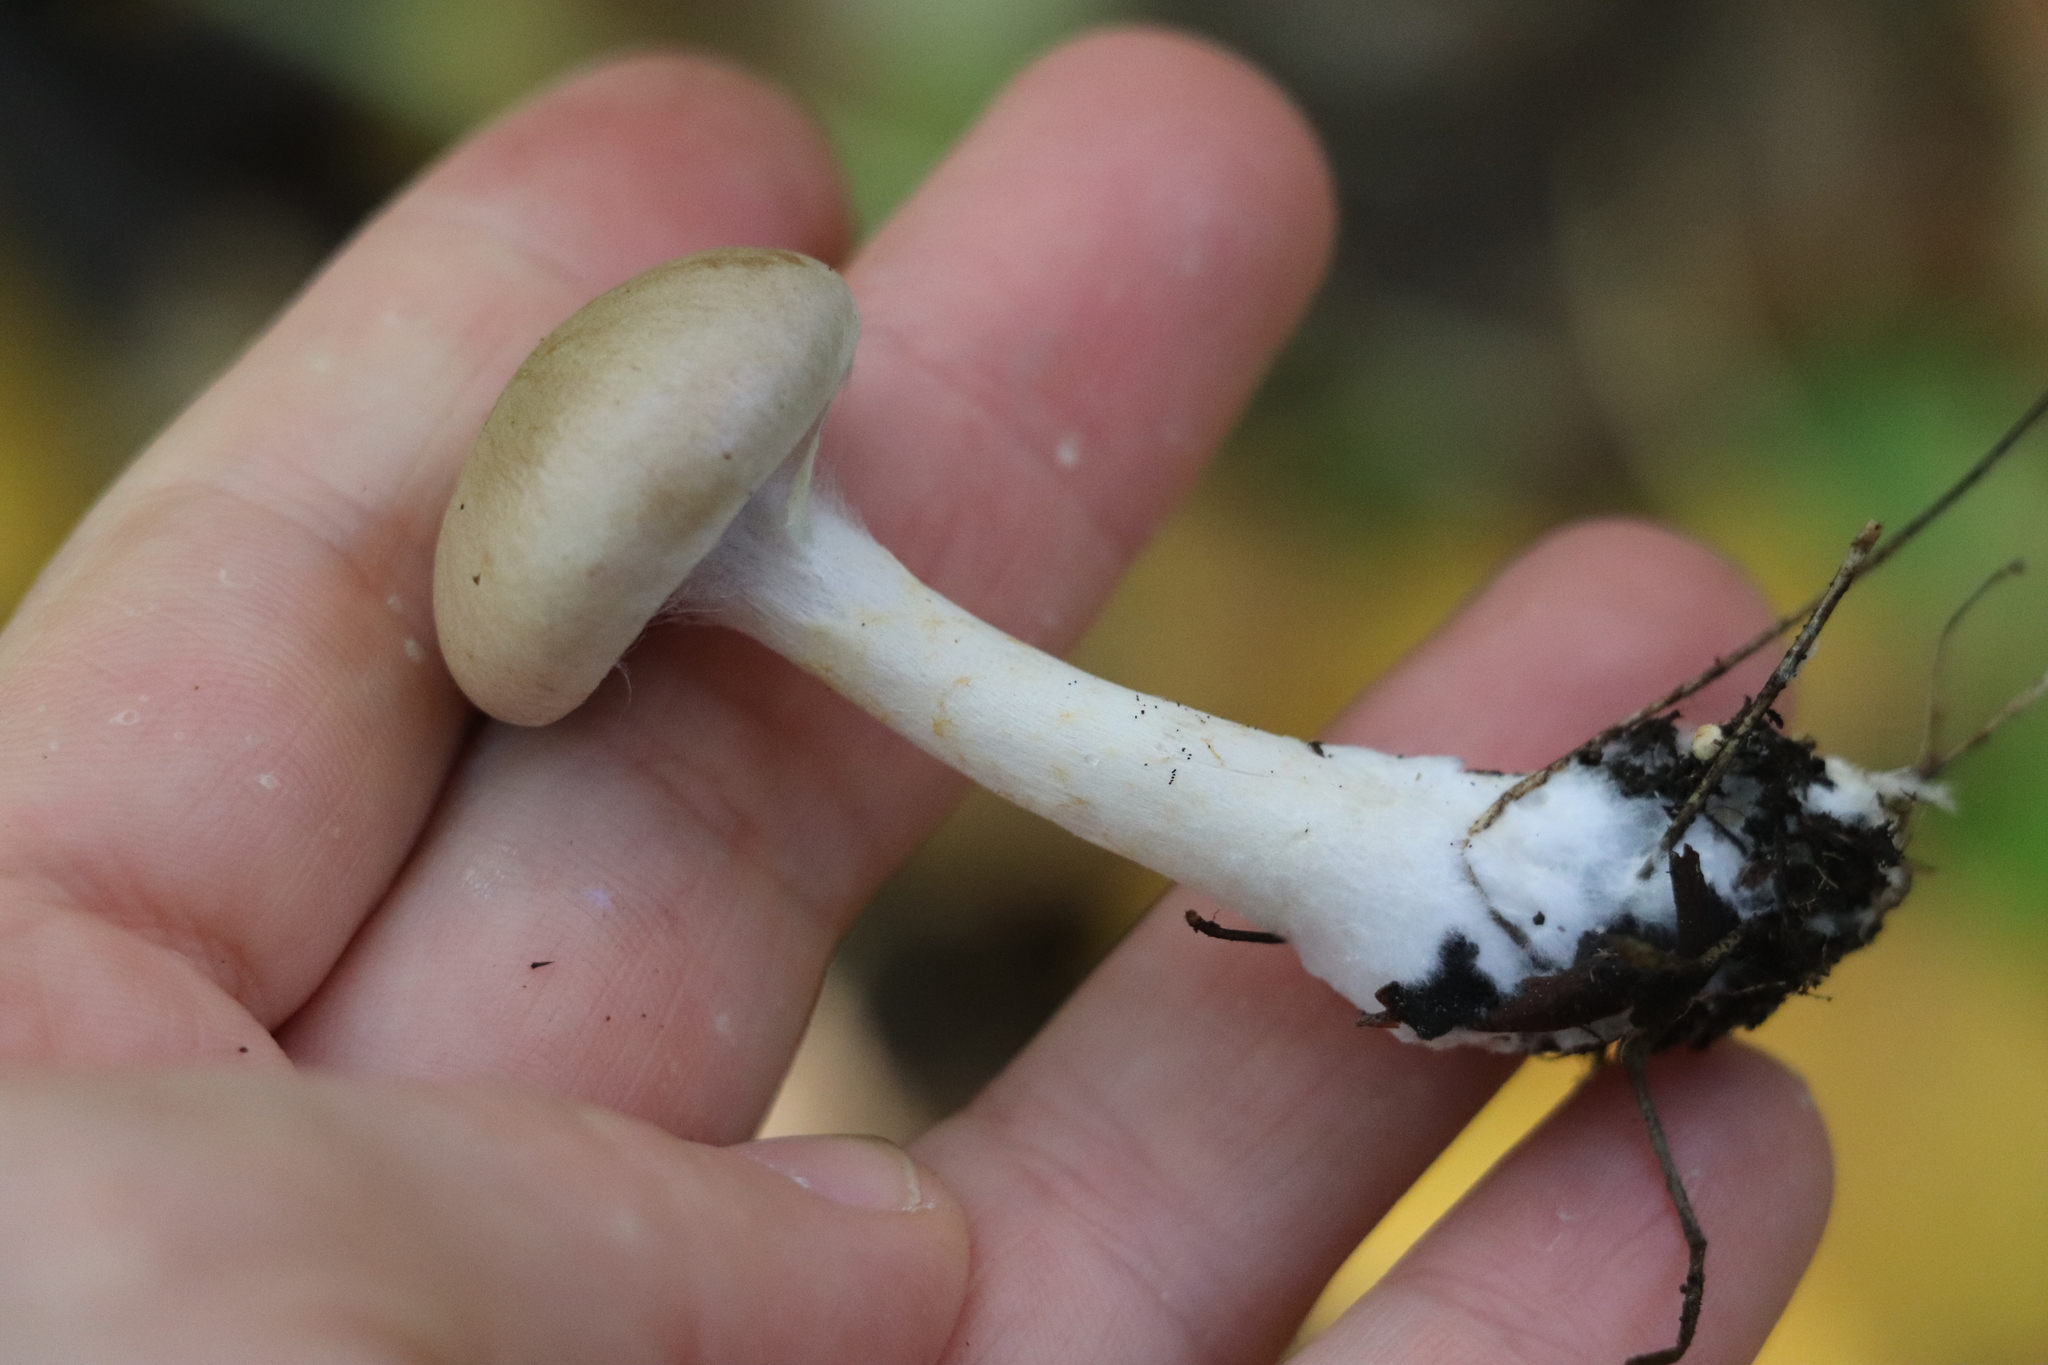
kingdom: Fungi
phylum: Basidiomycota
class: Agaricomycetes
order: Agaricales
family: Cortinariaceae
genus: Cortinarius
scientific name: Cortinarius anomalus
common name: Variable webcap
